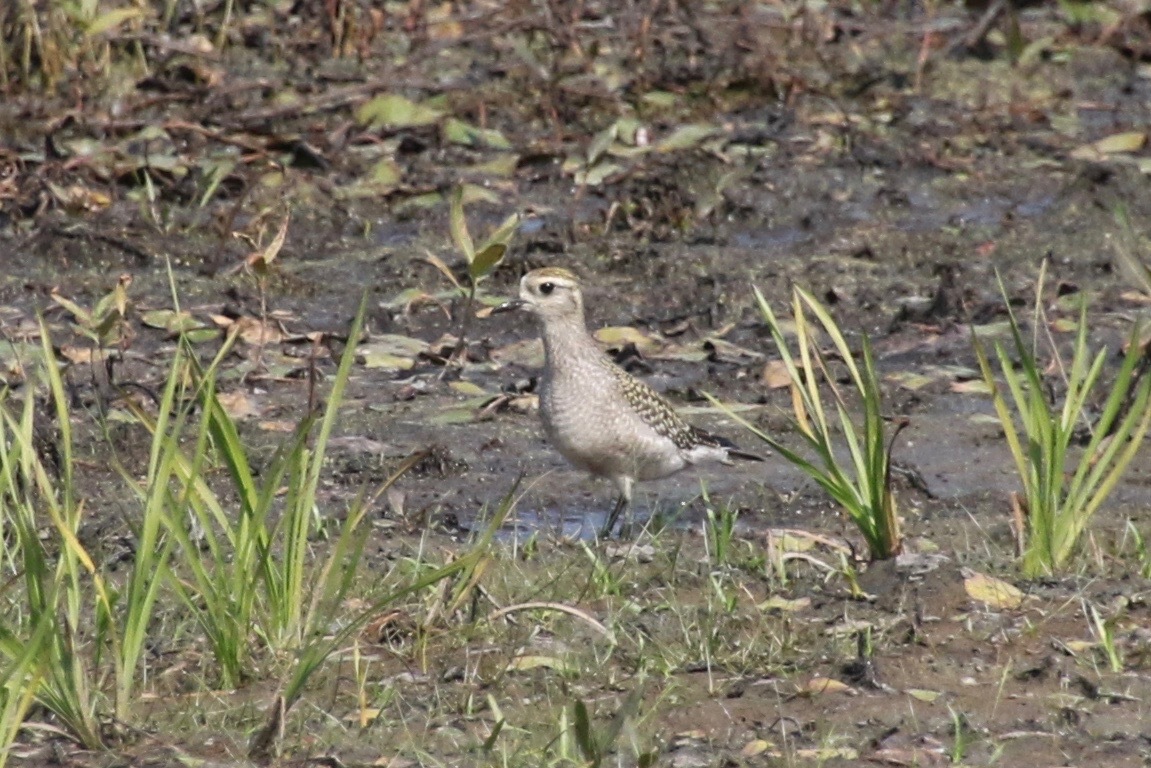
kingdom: Animalia
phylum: Chordata
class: Aves
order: Charadriiformes
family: Charadriidae
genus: Pluvialis
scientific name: Pluvialis dominica
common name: American golden plover
